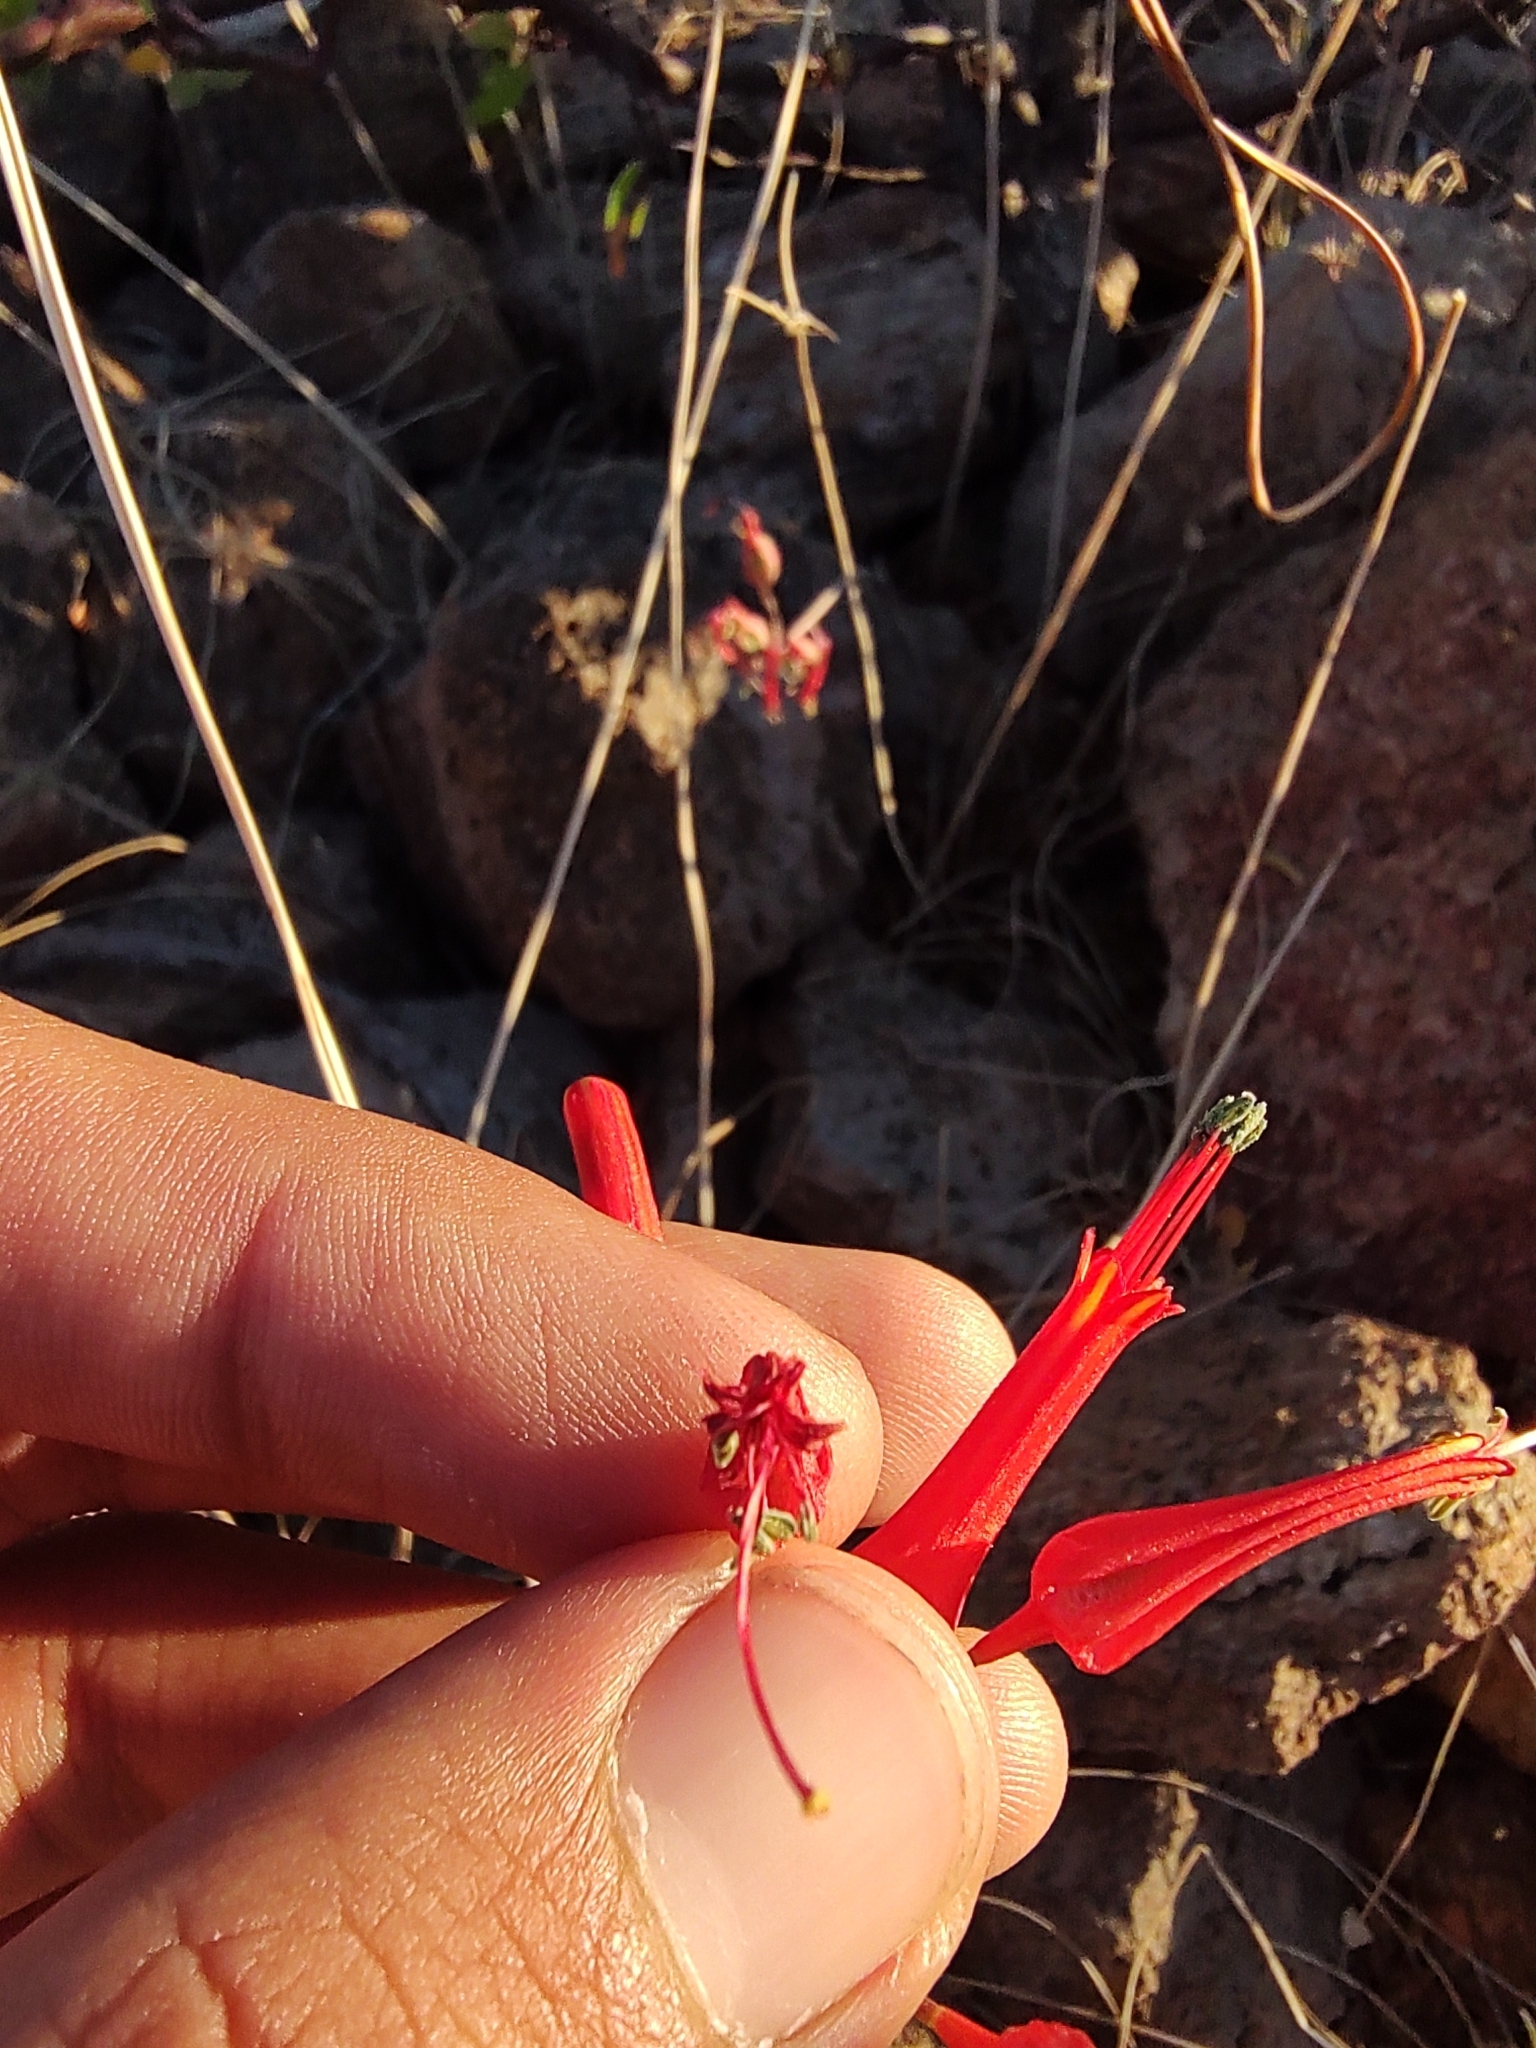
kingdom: Plantae
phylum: Tracheophyta
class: Liliopsida
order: Asparagales
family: Asparagaceae
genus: Bessera
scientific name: Bessera tenuiflora
